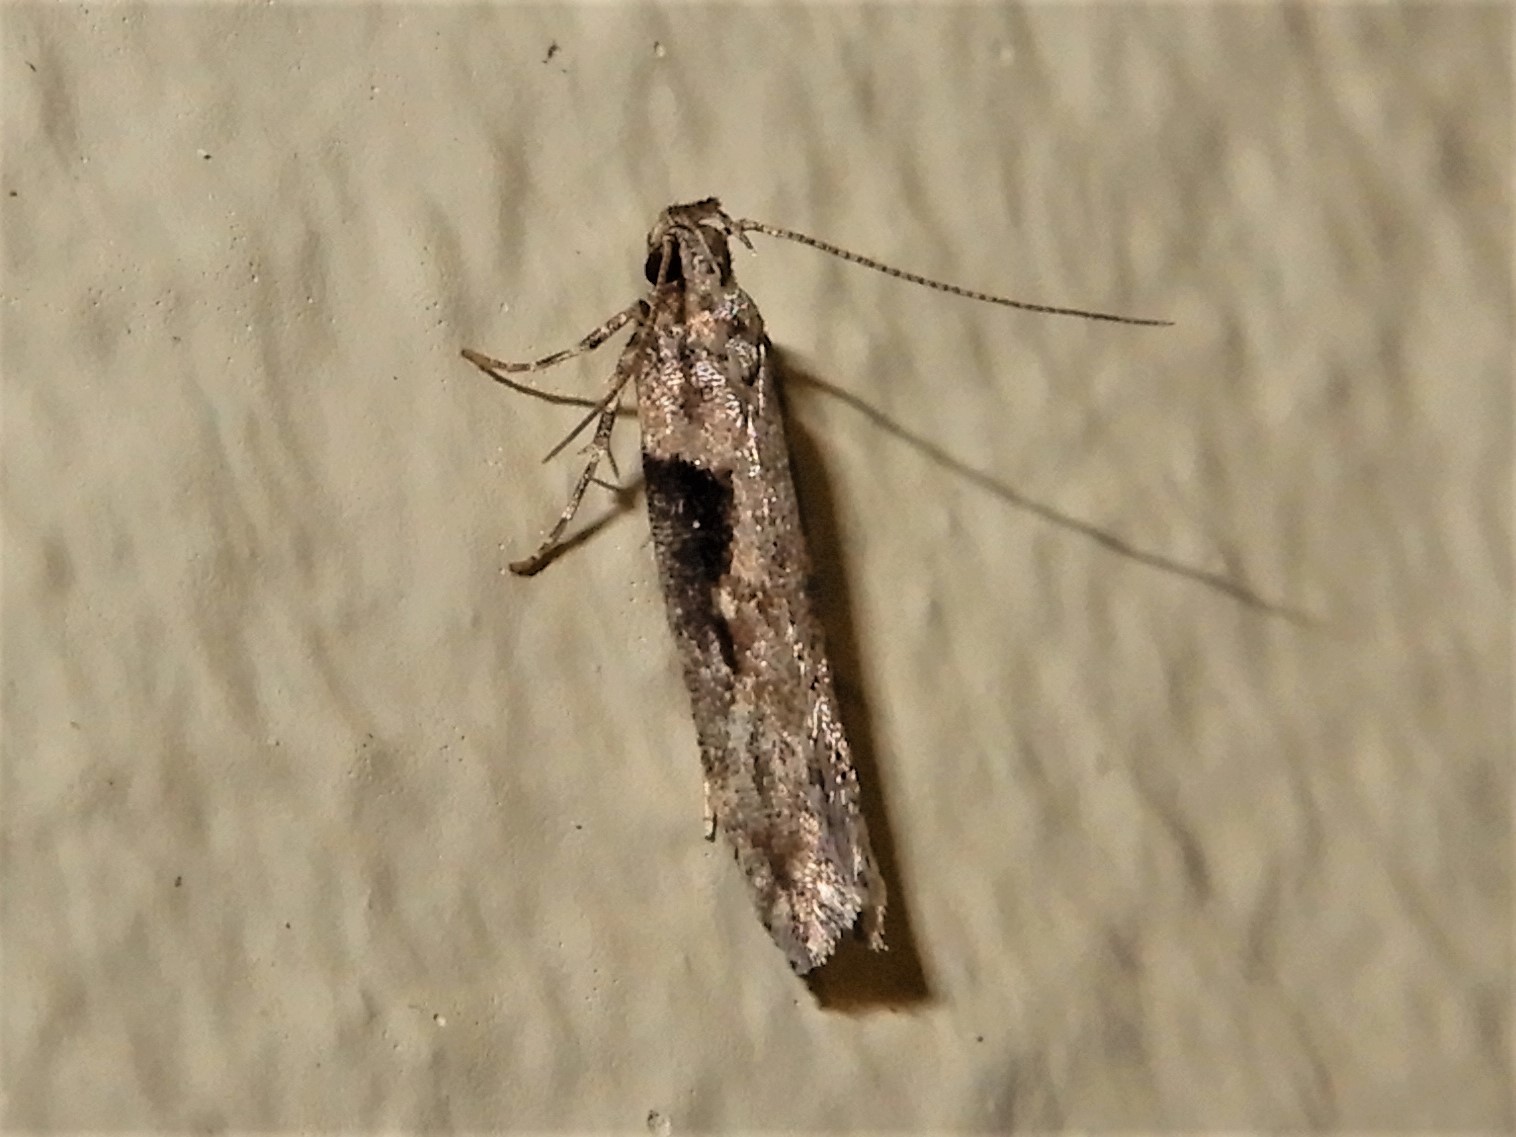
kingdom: Animalia
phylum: Arthropoda
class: Insecta
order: Lepidoptera
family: Gelechiidae
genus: Symmetrischema
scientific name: Symmetrischema tangolias
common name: Moth
